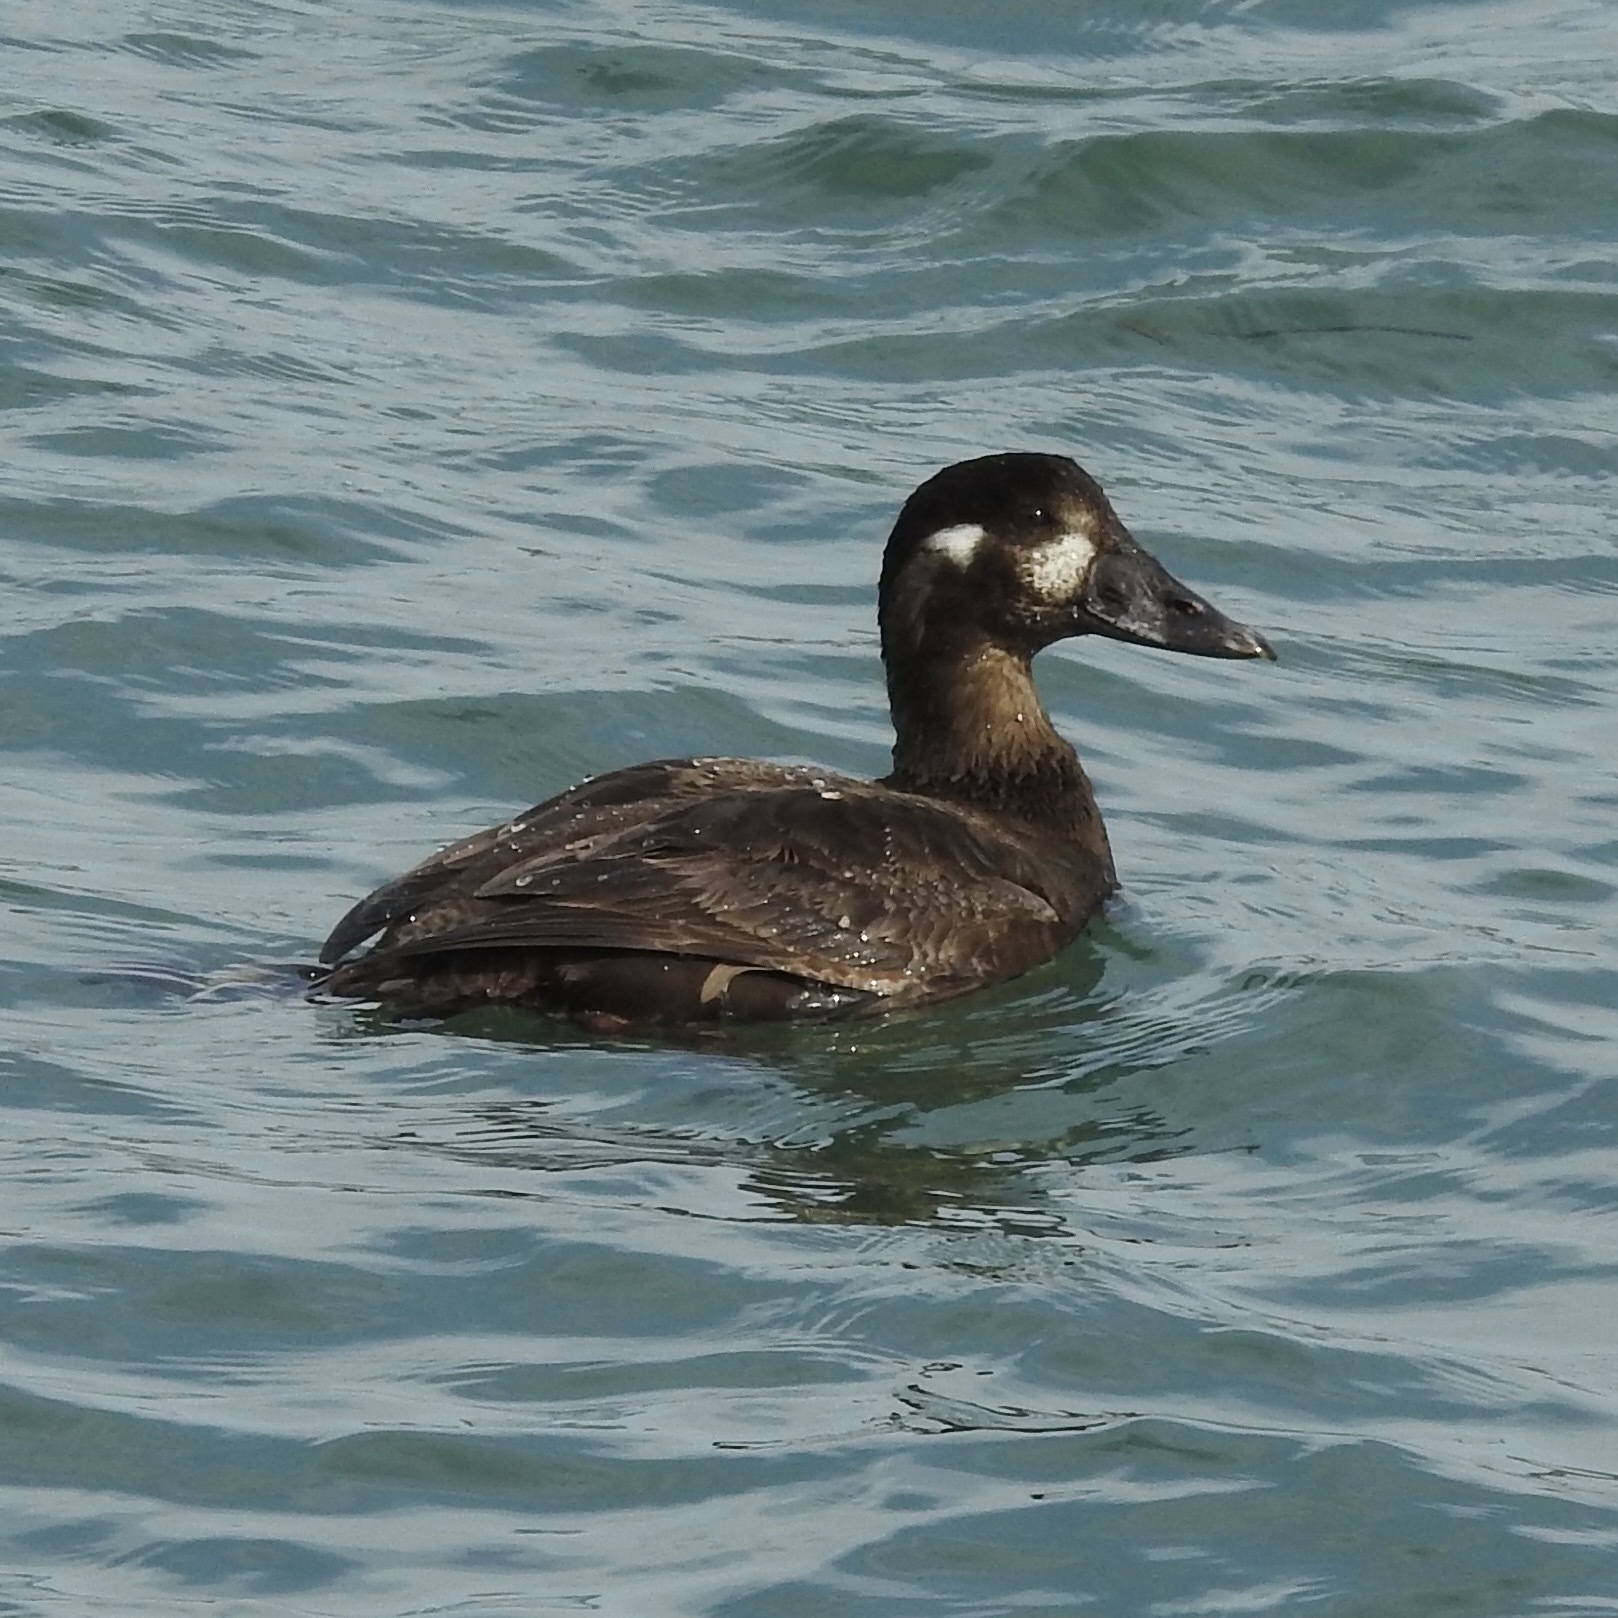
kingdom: Animalia
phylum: Chordata
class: Aves
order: Anseriformes
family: Anatidae
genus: Melanitta
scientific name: Melanitta perspicillata
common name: Surf scoter
